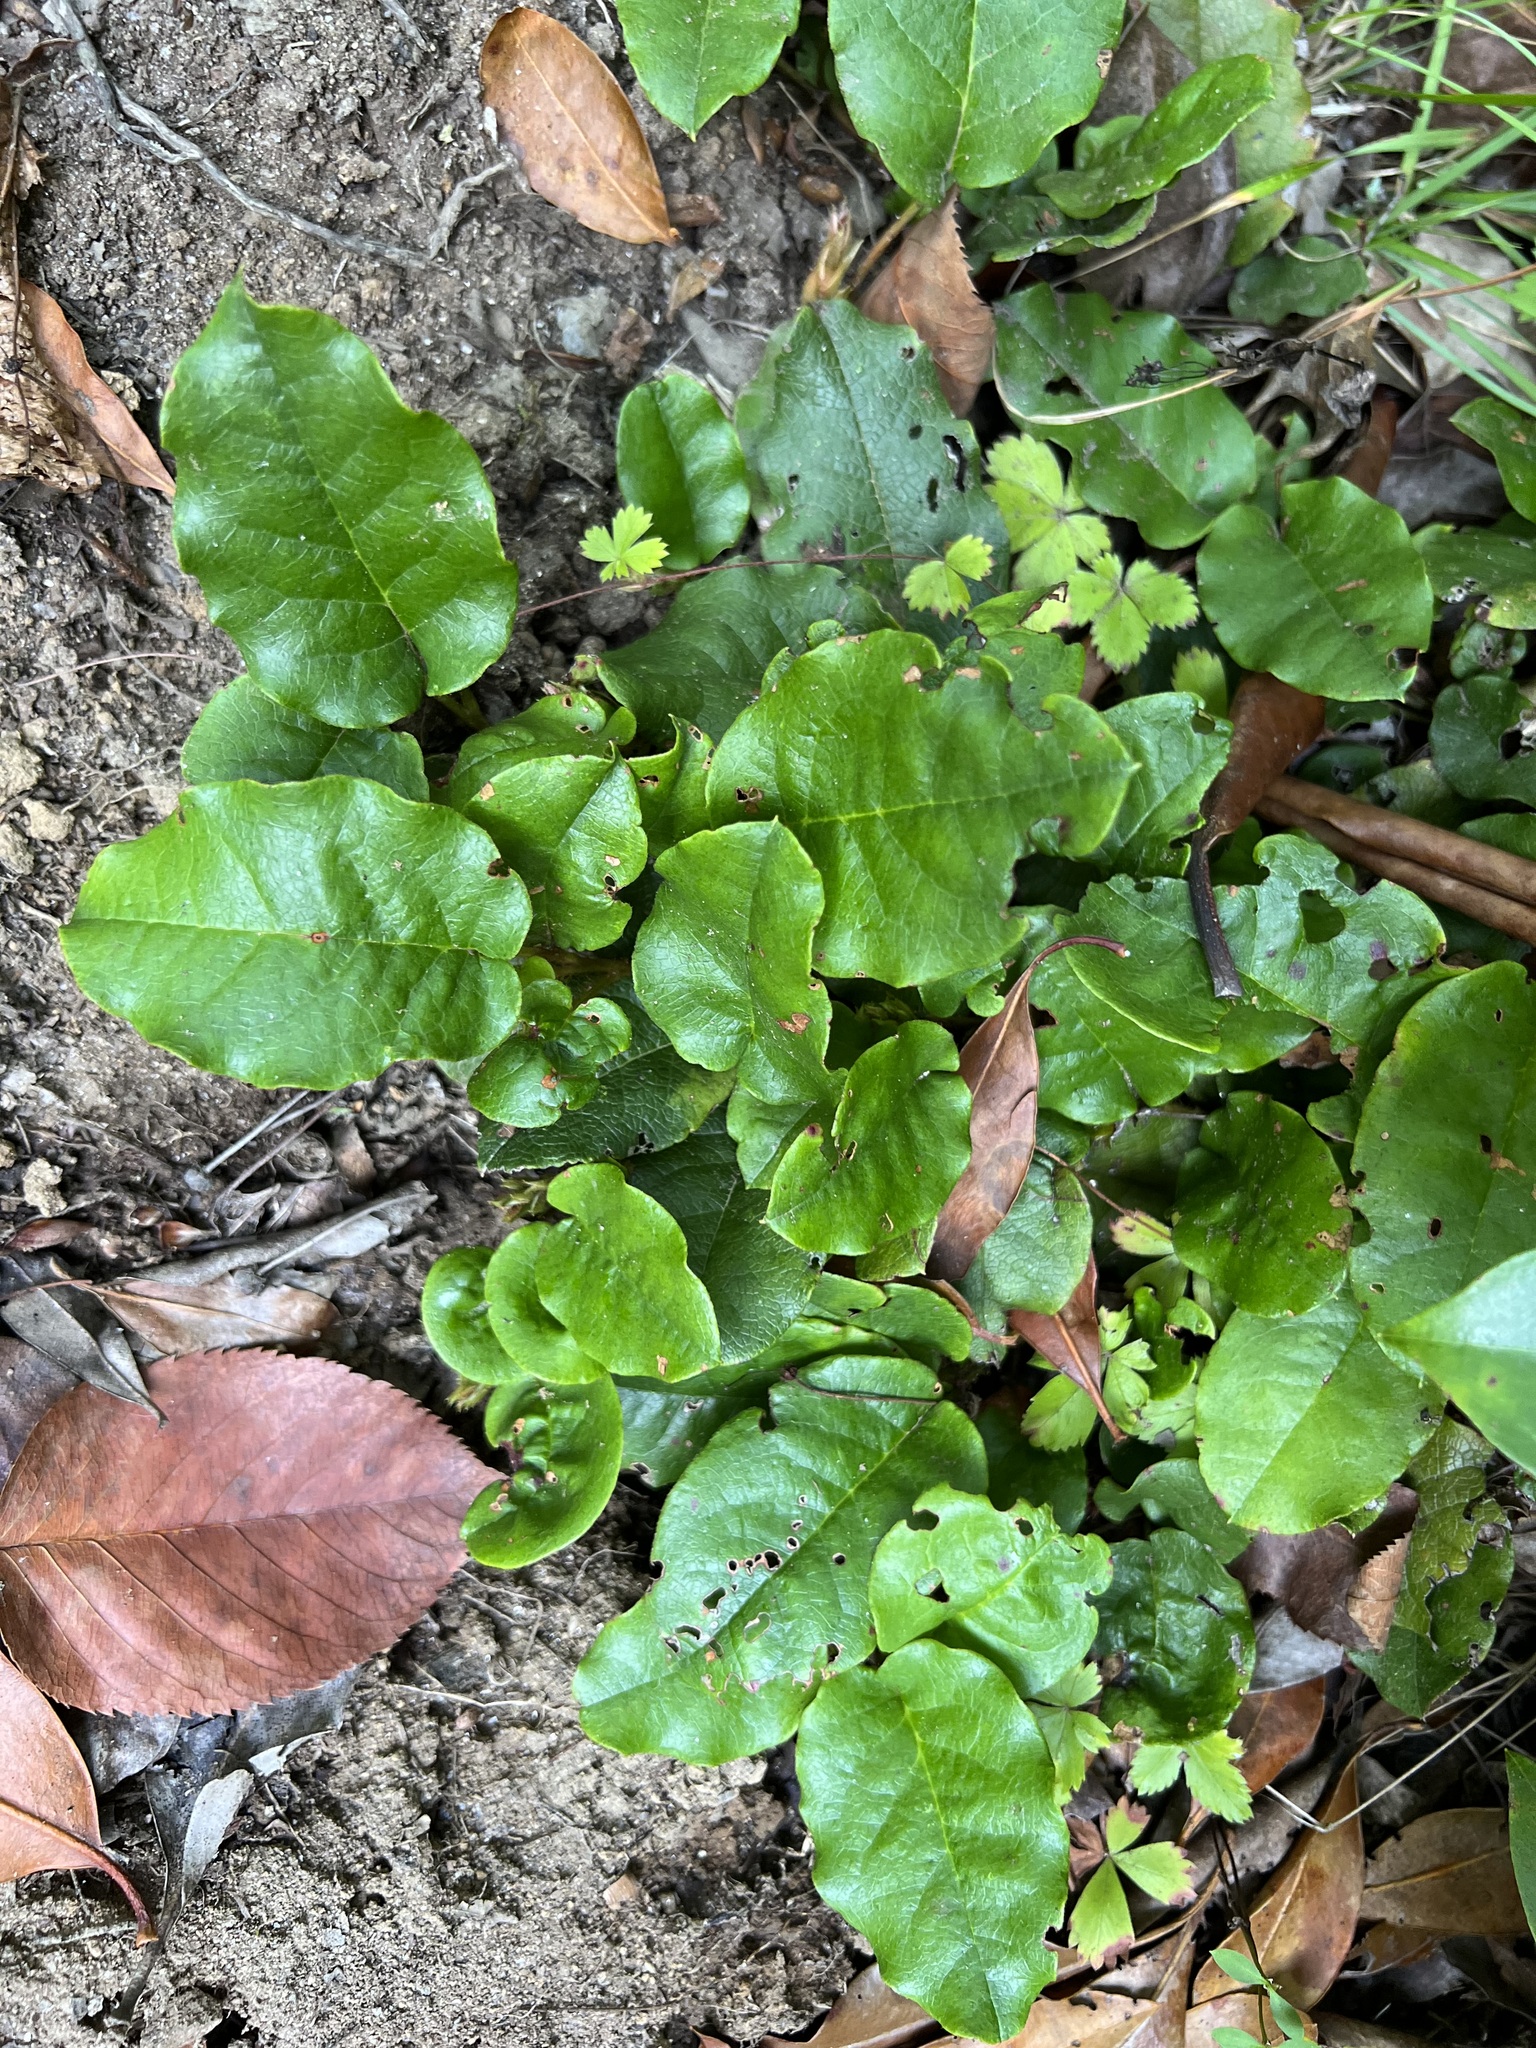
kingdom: Plantae
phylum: Tracheophyta
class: Magnoliopsida
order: Ericales
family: Ericaceae
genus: Epigaea
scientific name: Epigaea repens
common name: Gravelroot
